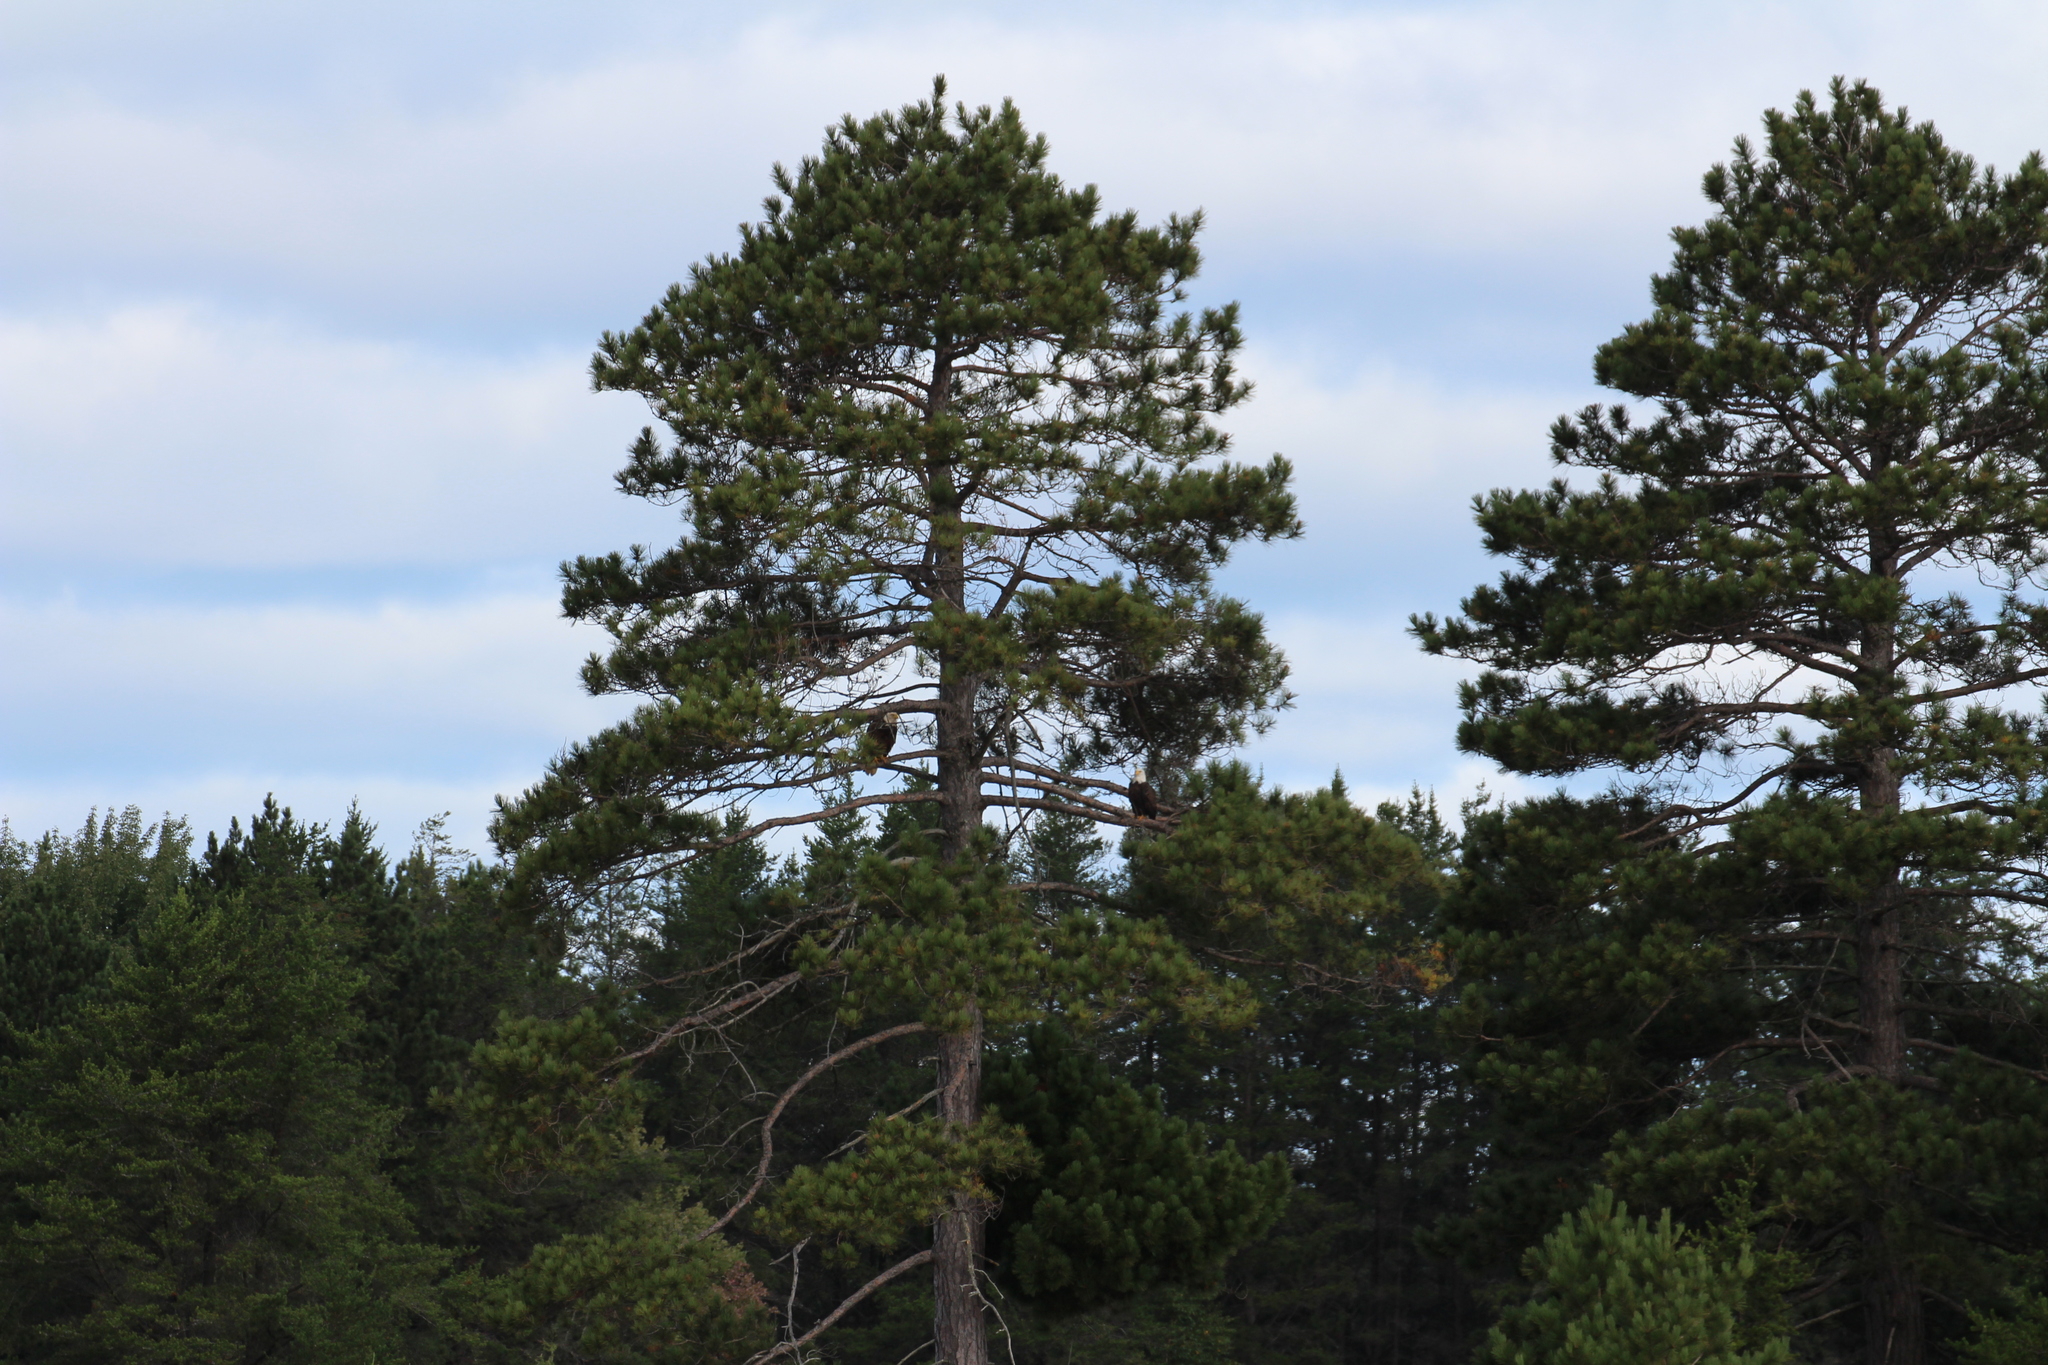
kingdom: Animalia
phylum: Chordata
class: Aves
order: Accipitriformes
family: Accipitridae
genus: Haliaeetus
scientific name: Haliaeetus leucocephalus
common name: Bald eagle
